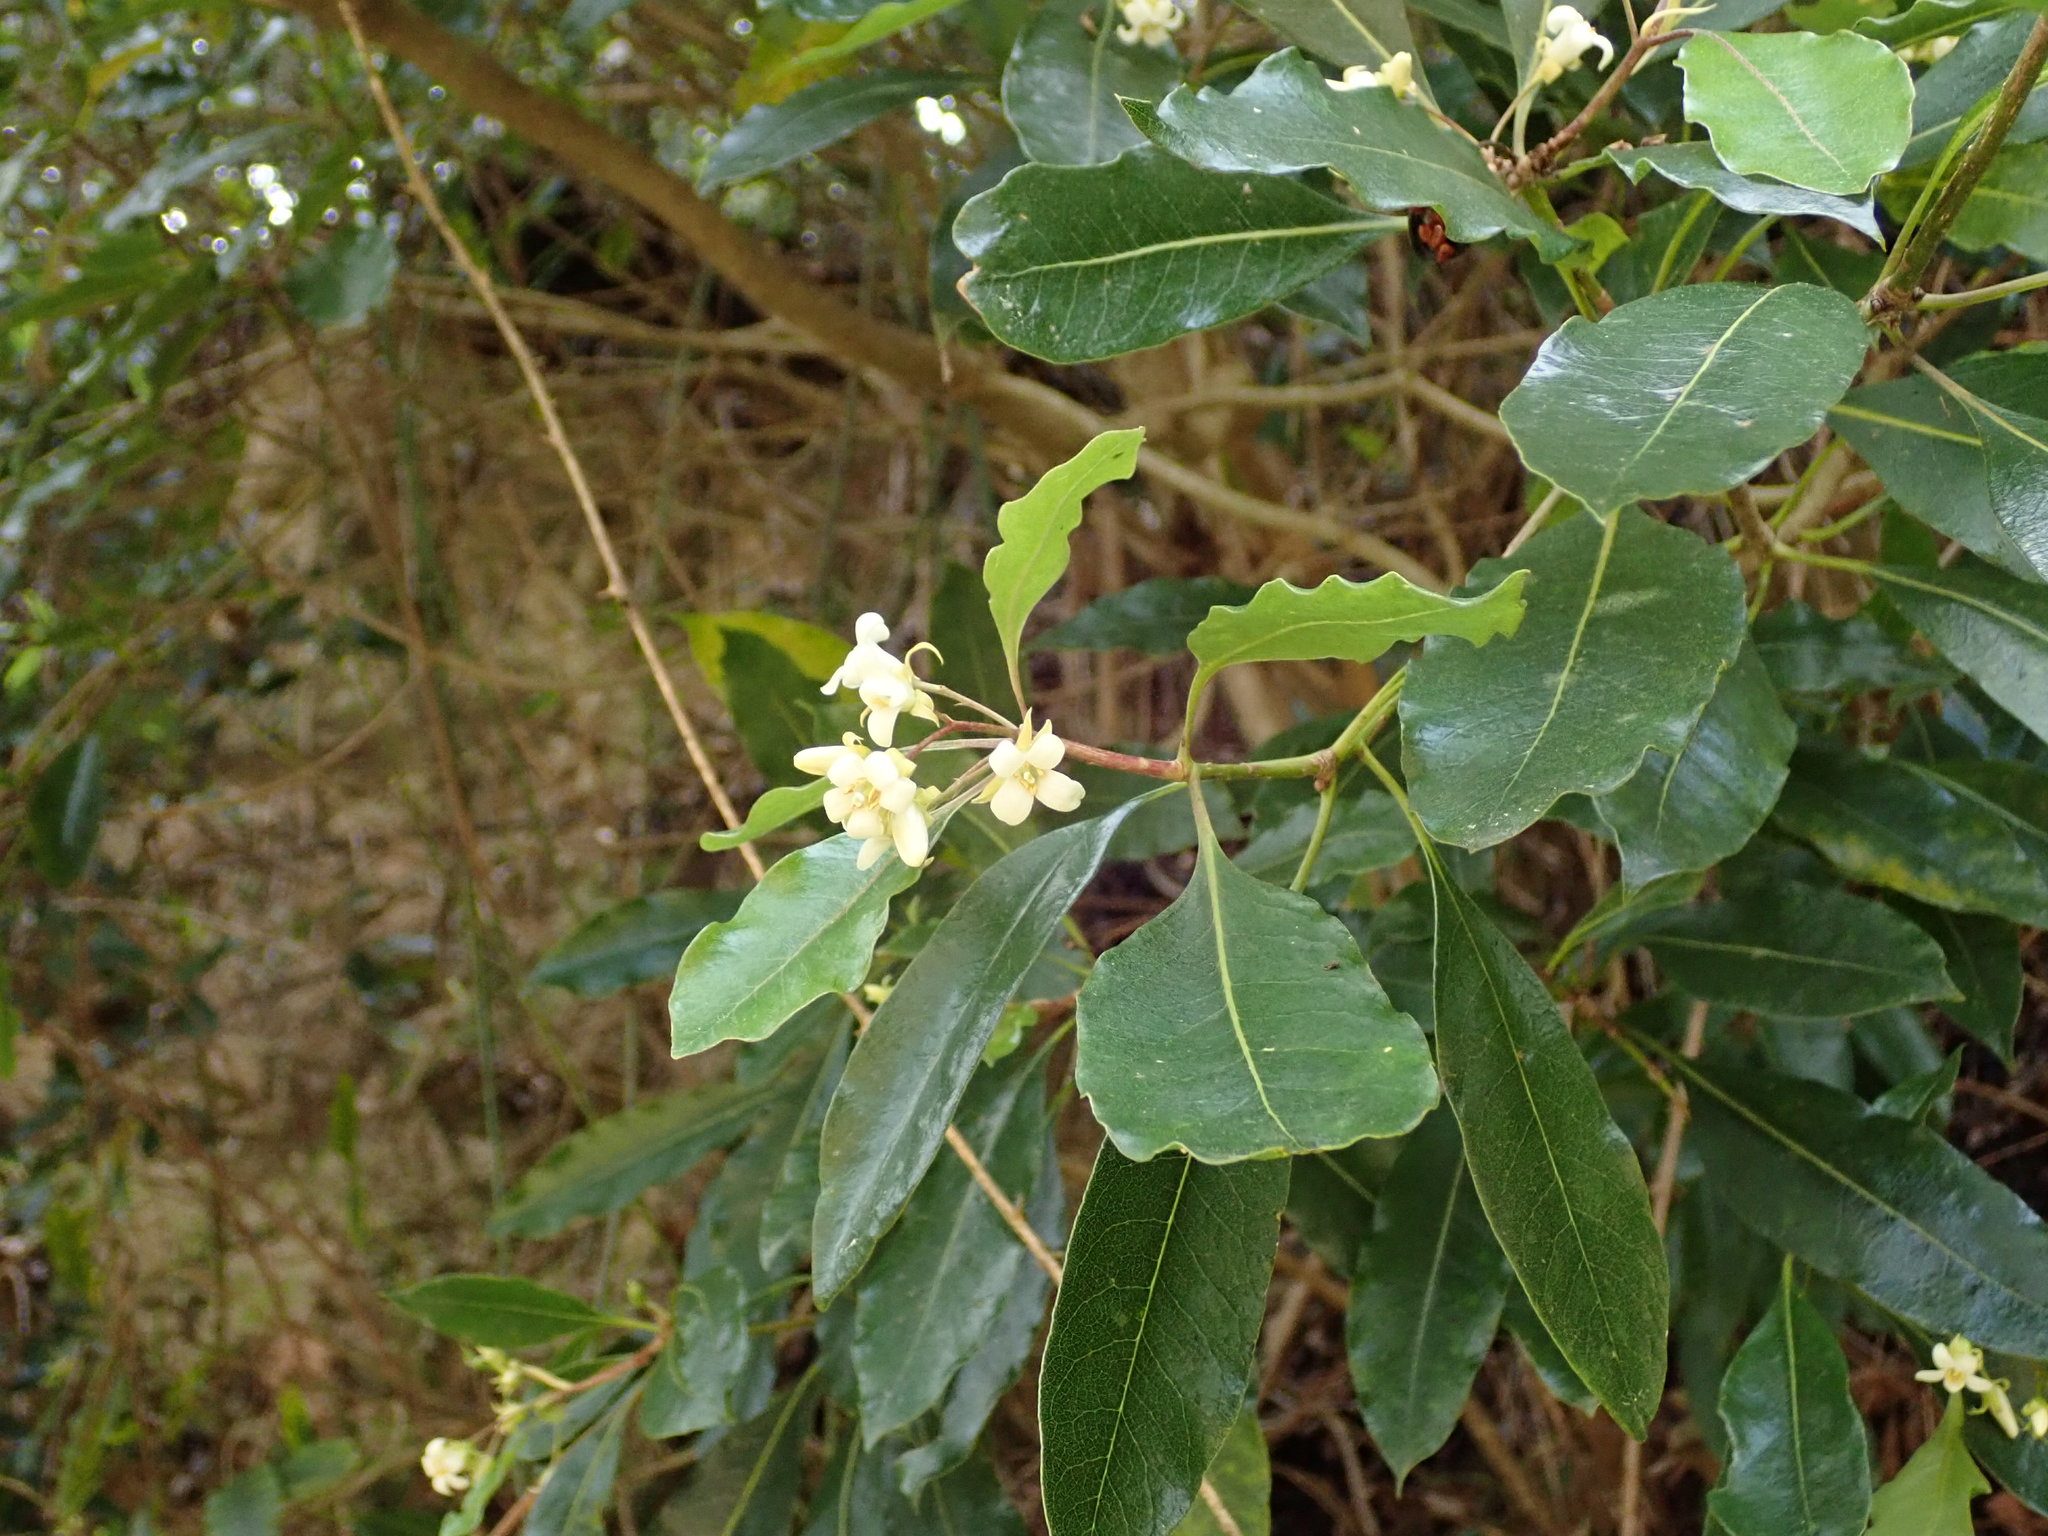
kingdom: Plantae
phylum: Tracheophyta
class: Magnoliopsida
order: Apiales
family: Pittosporaceae
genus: Pittosporum
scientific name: Pittosporum undulatum
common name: Australian cheesewood
